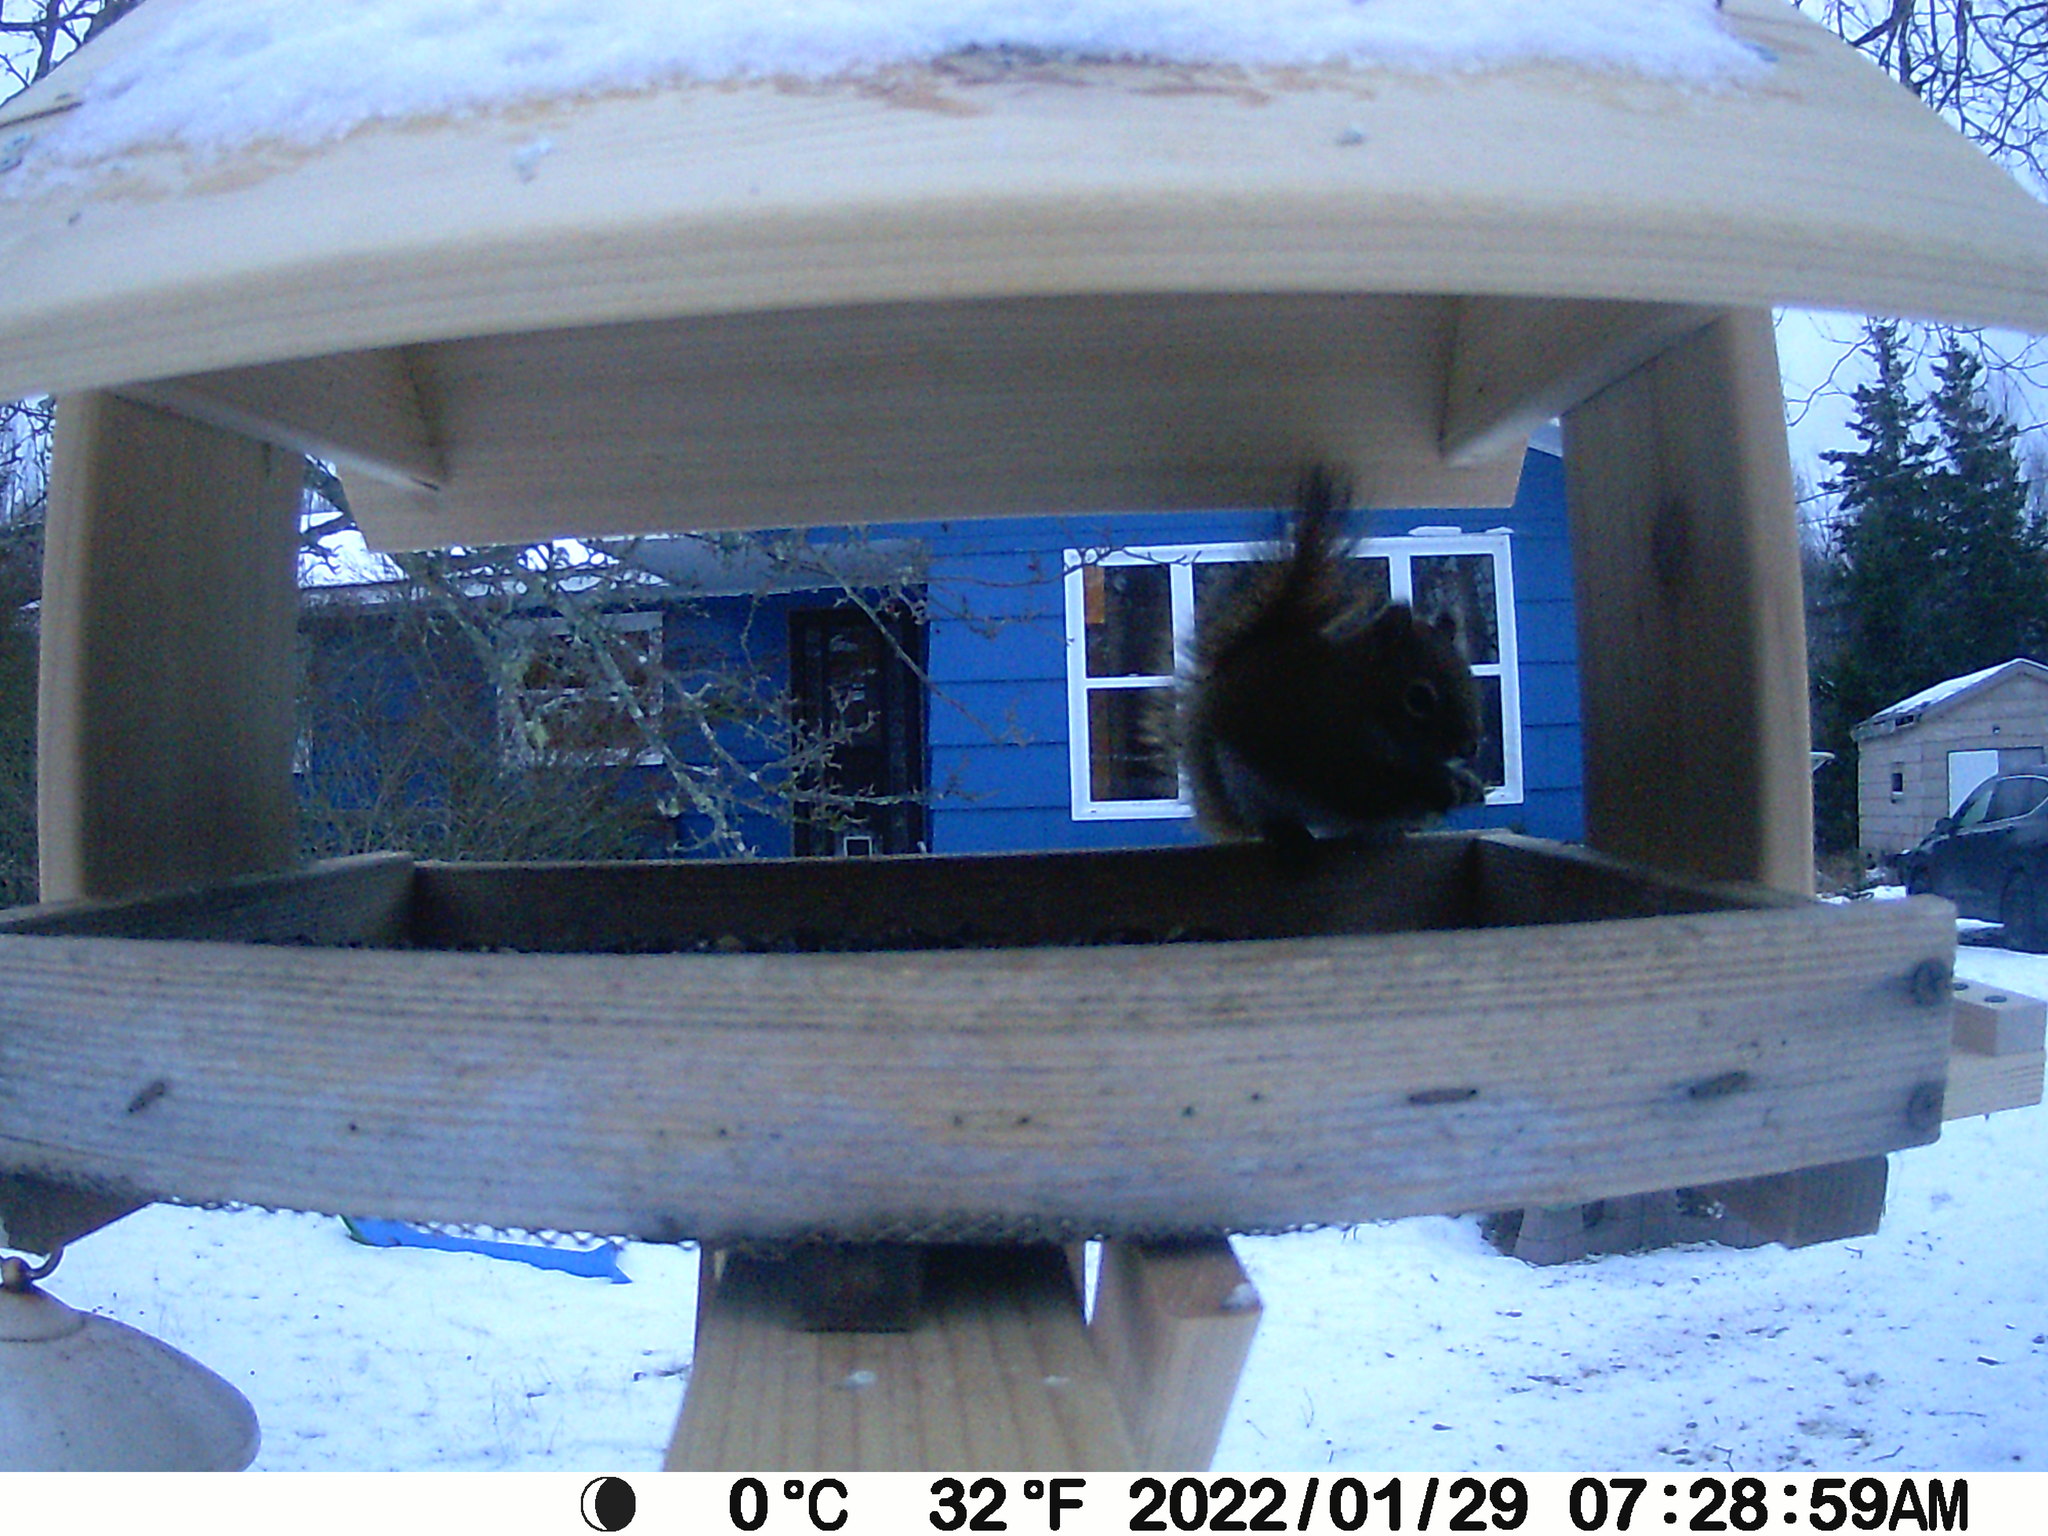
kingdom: Animalia
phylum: Chordata
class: Mammalia
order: Rodentia
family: Sciuridae
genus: Tamiasciurus
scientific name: Tamiasciurus hudsonicus
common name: Red squirrel
